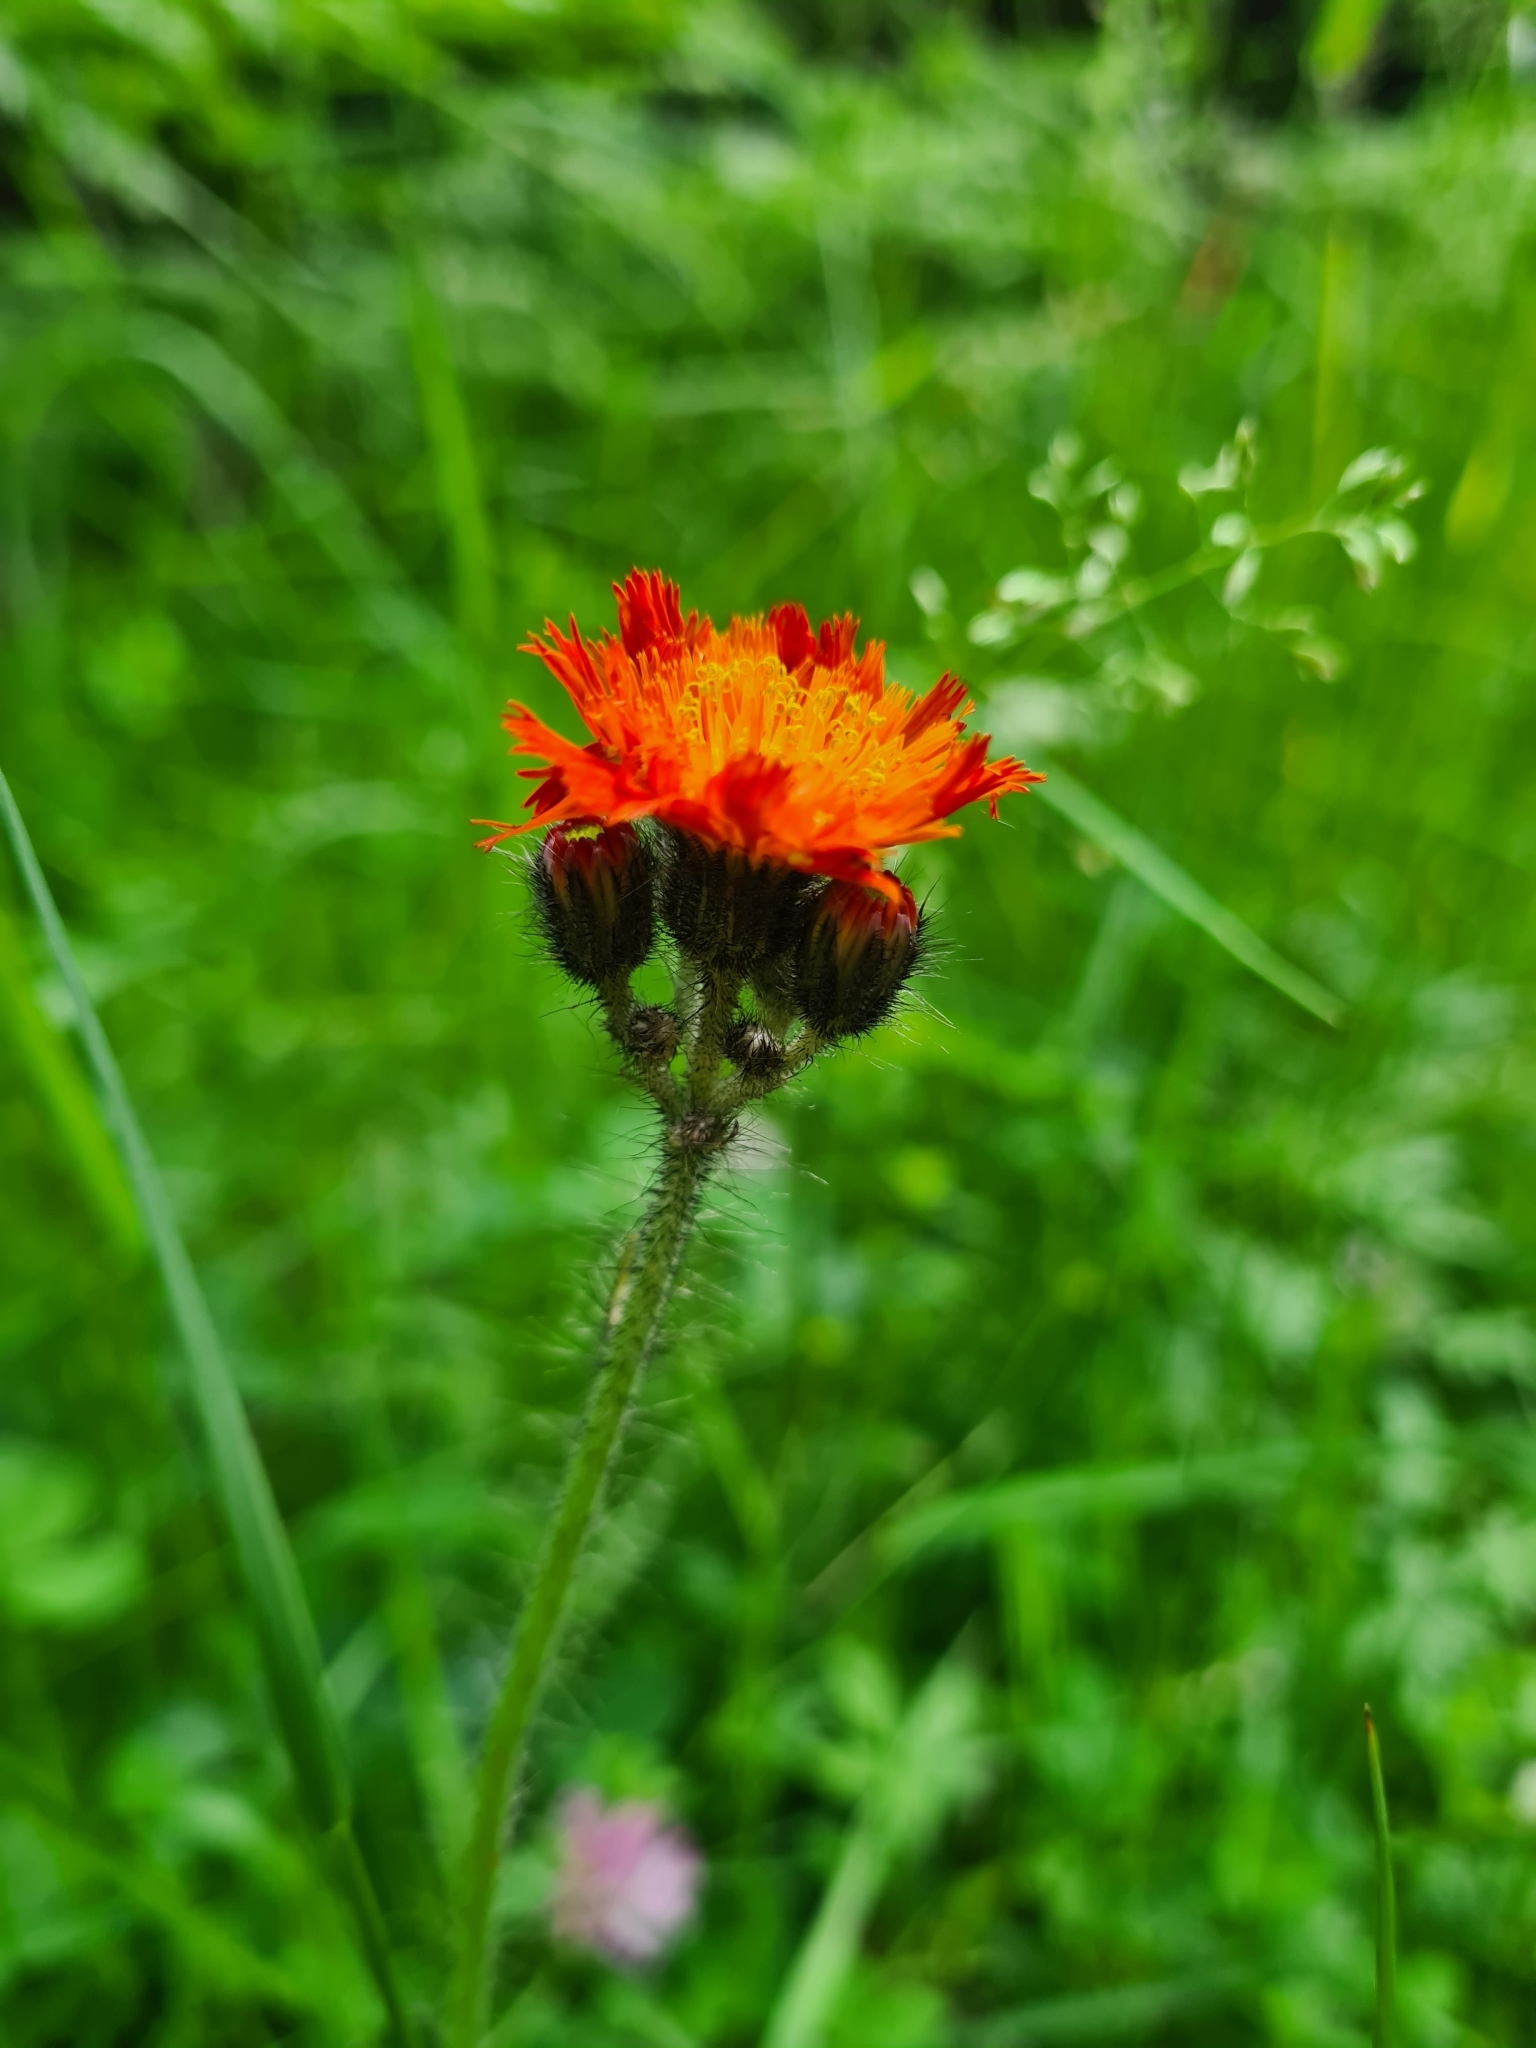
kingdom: Plantae
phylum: Tracheophyta
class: Magnoliopsida
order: Asterales
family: Asteraceae
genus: Pilosella
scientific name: Pilosella aurantiaca
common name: Fox-and-cubs
